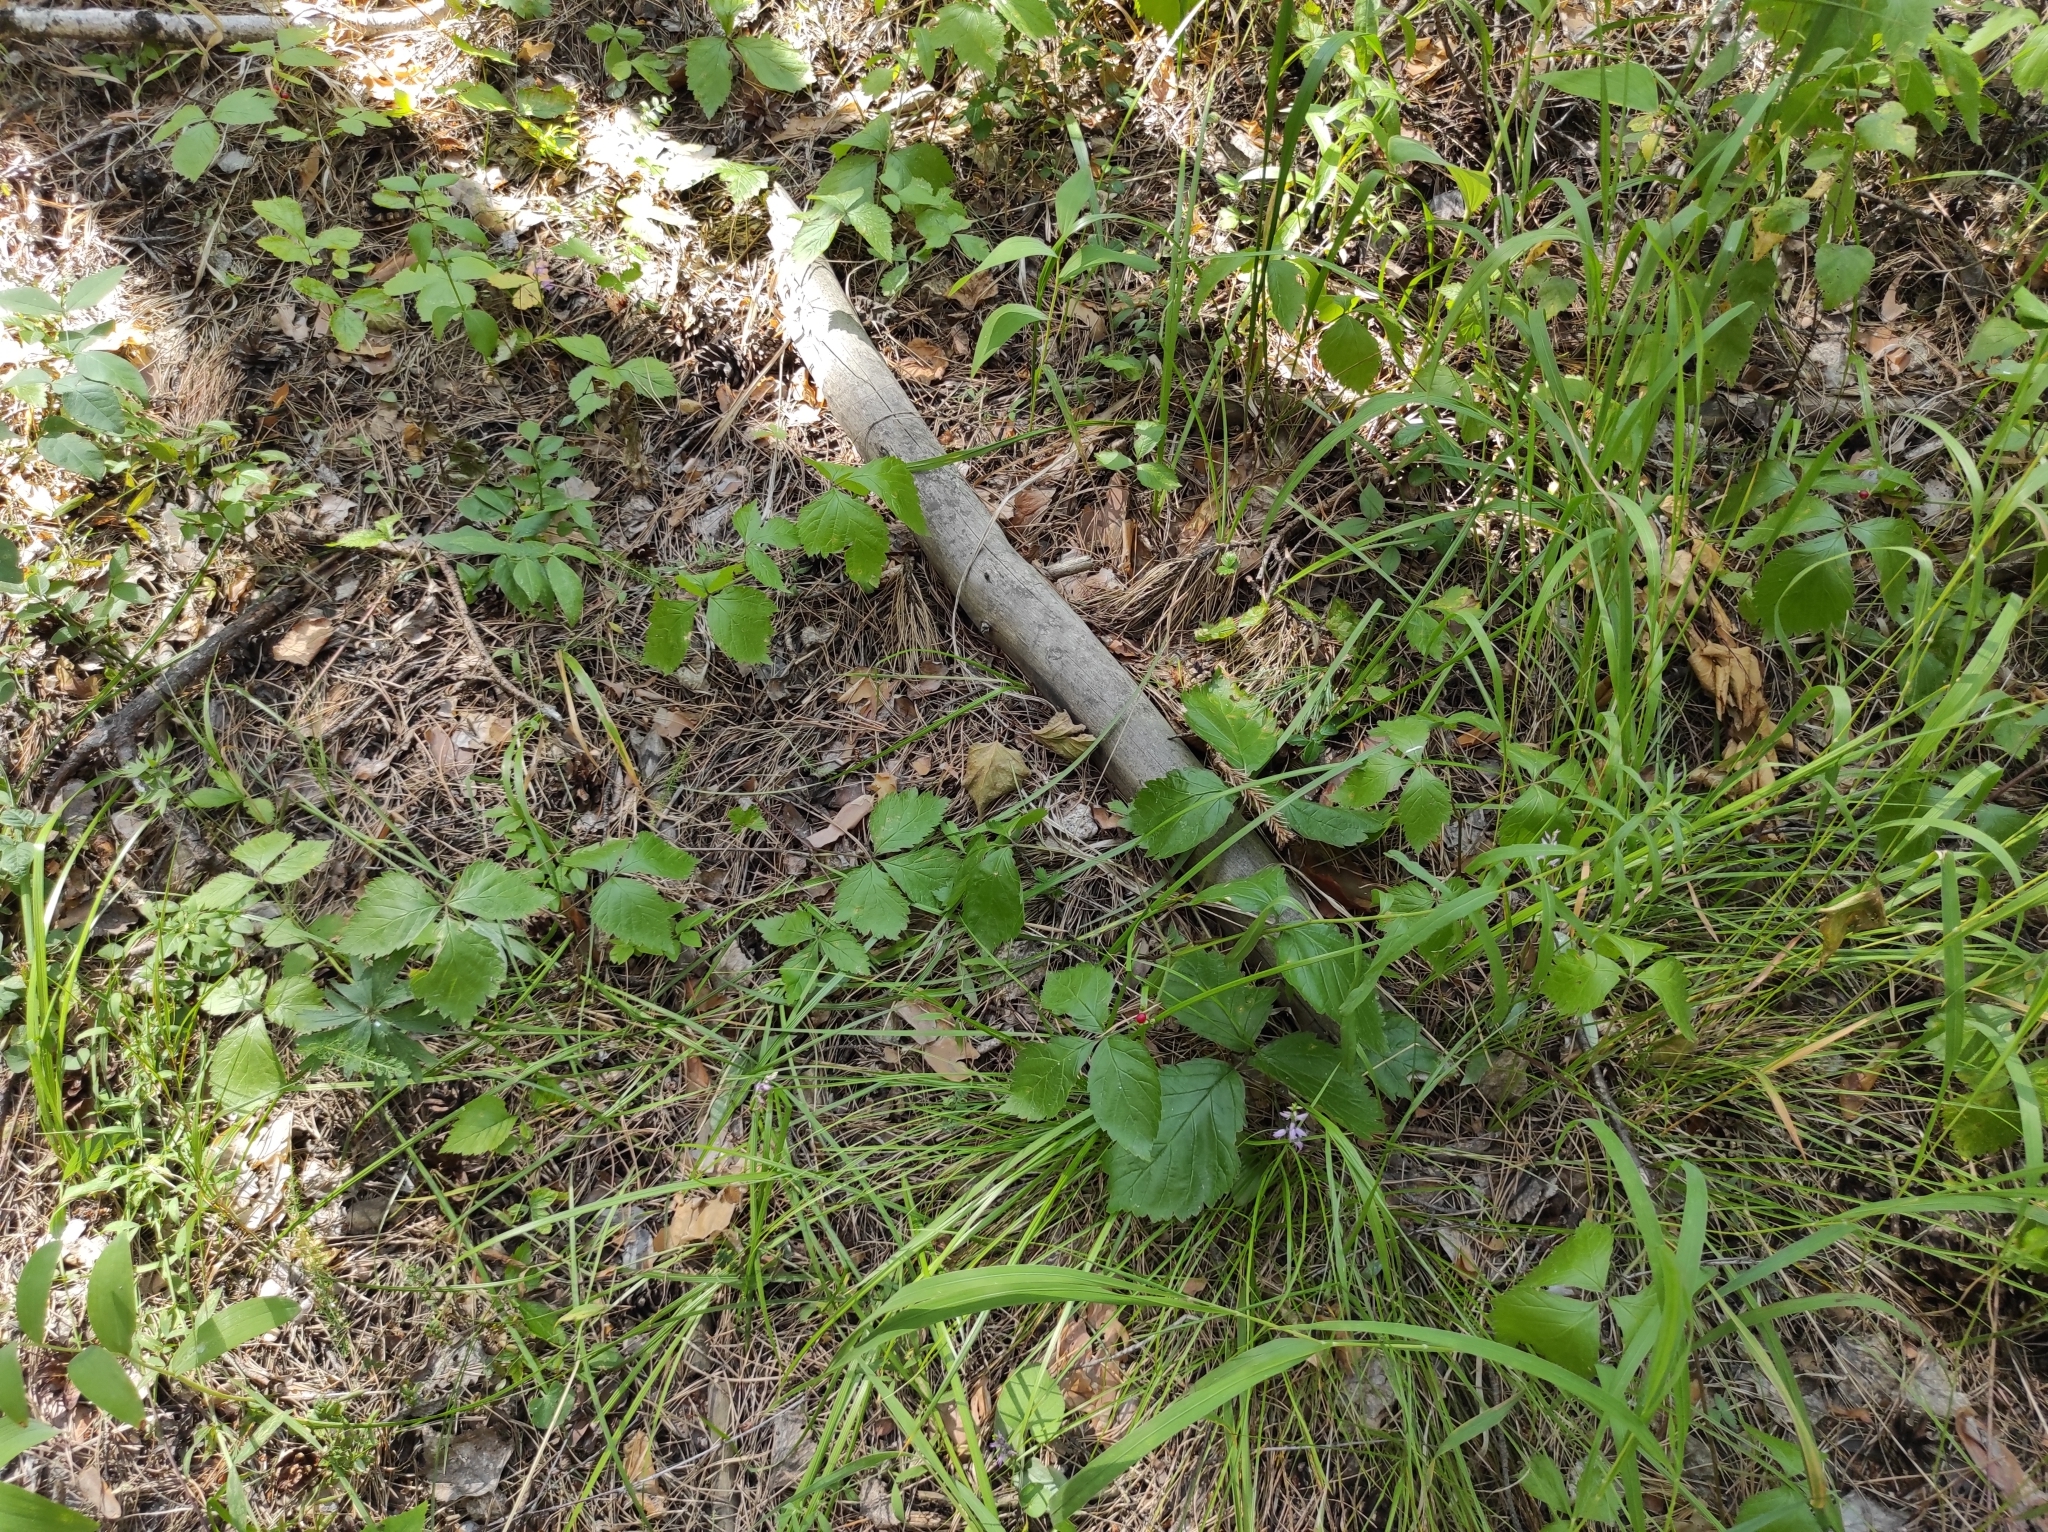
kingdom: Plantae
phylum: Tracheophyta
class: Liliopsida
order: Asparagales
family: Orchidaceae
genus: Hemipilia
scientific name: Hemipilia cucullata
